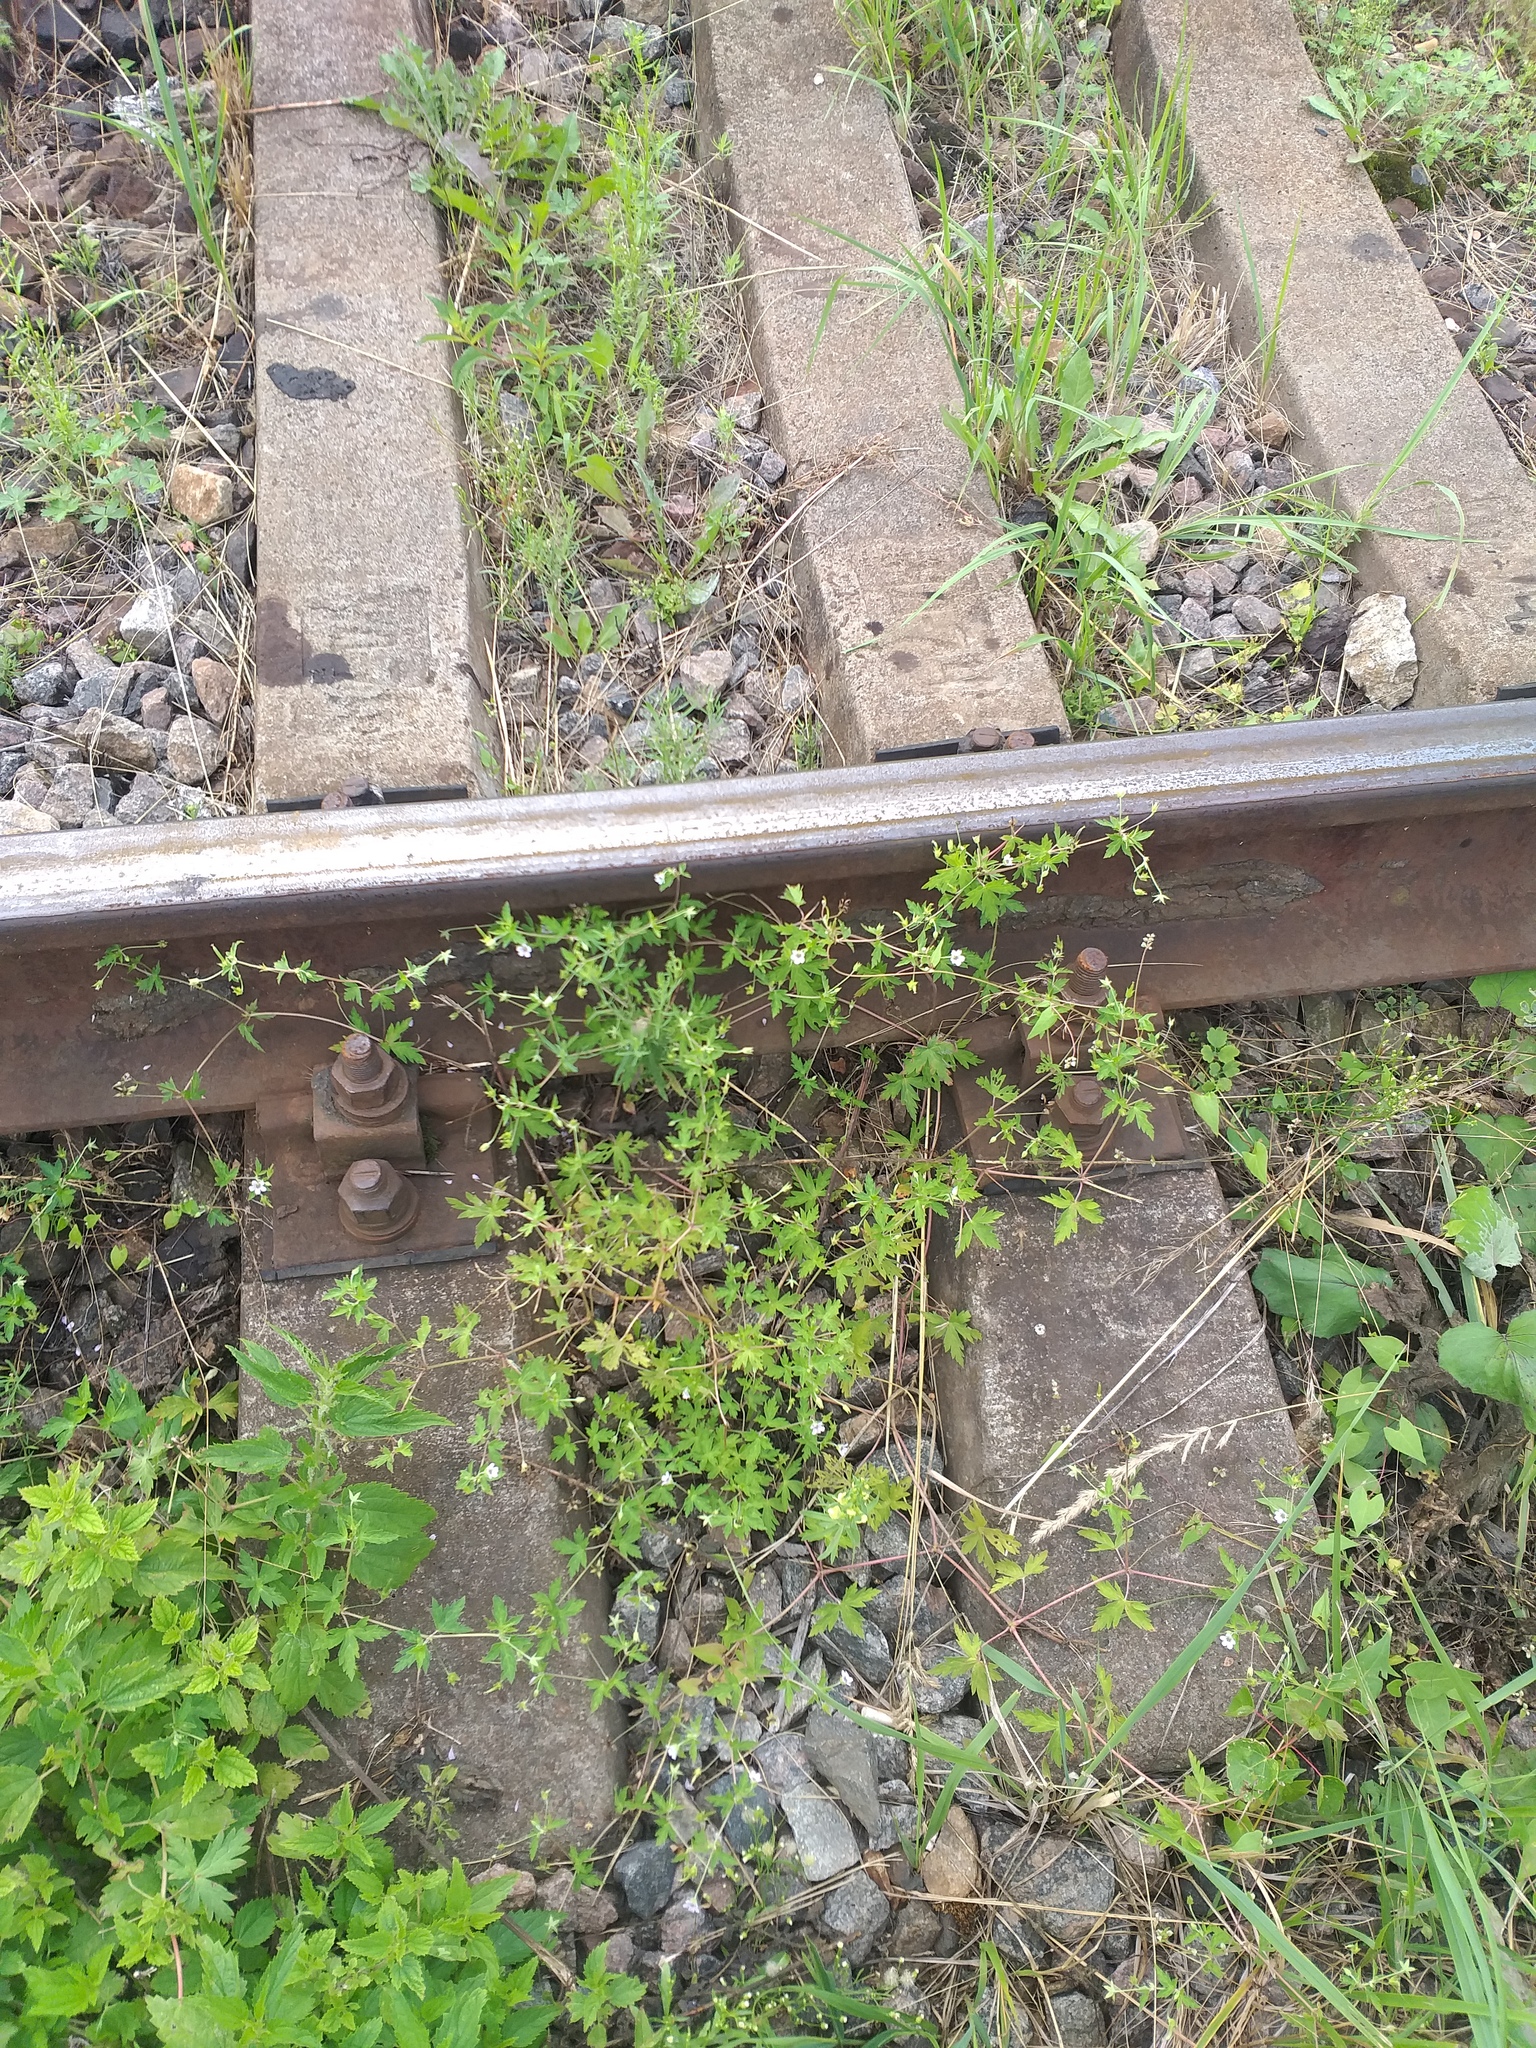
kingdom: Plantae
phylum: Tracheophyta
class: Magnoliopsida
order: Geraniales
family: Geraniaceae
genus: Geranium
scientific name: Geranium sibiricum
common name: Siberian crane's-bill
